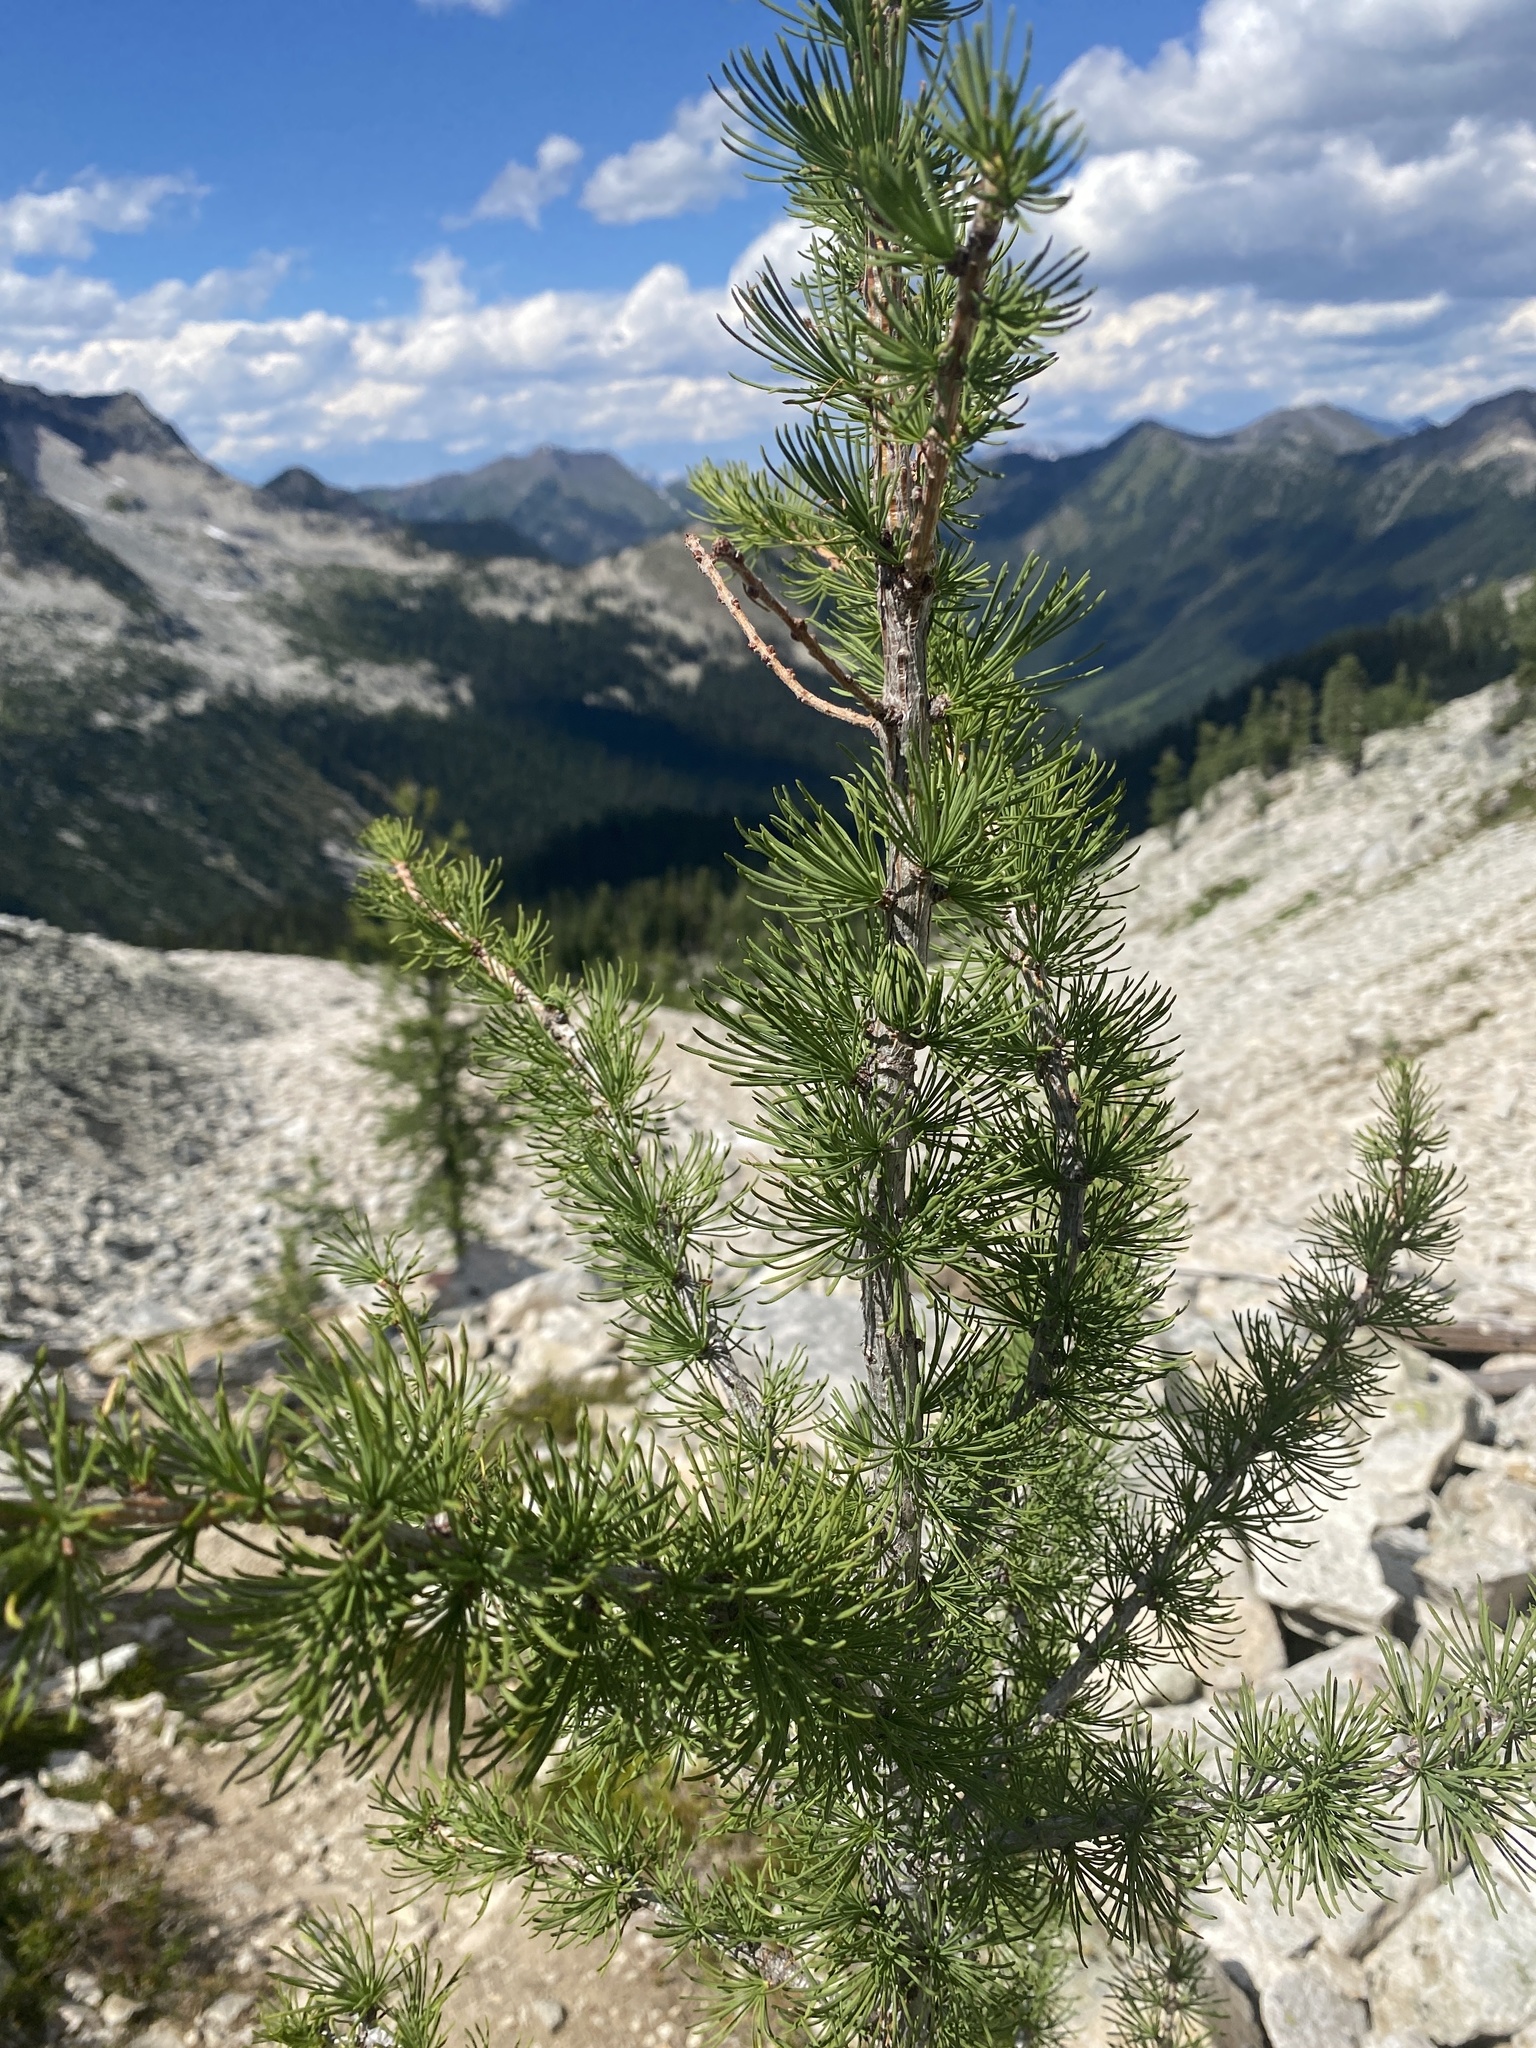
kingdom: Plantae
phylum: Tracheophyta
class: Pinopsida
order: Pinales
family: Pinaceae
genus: Larix
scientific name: Larix lyallii
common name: Alpine larch
